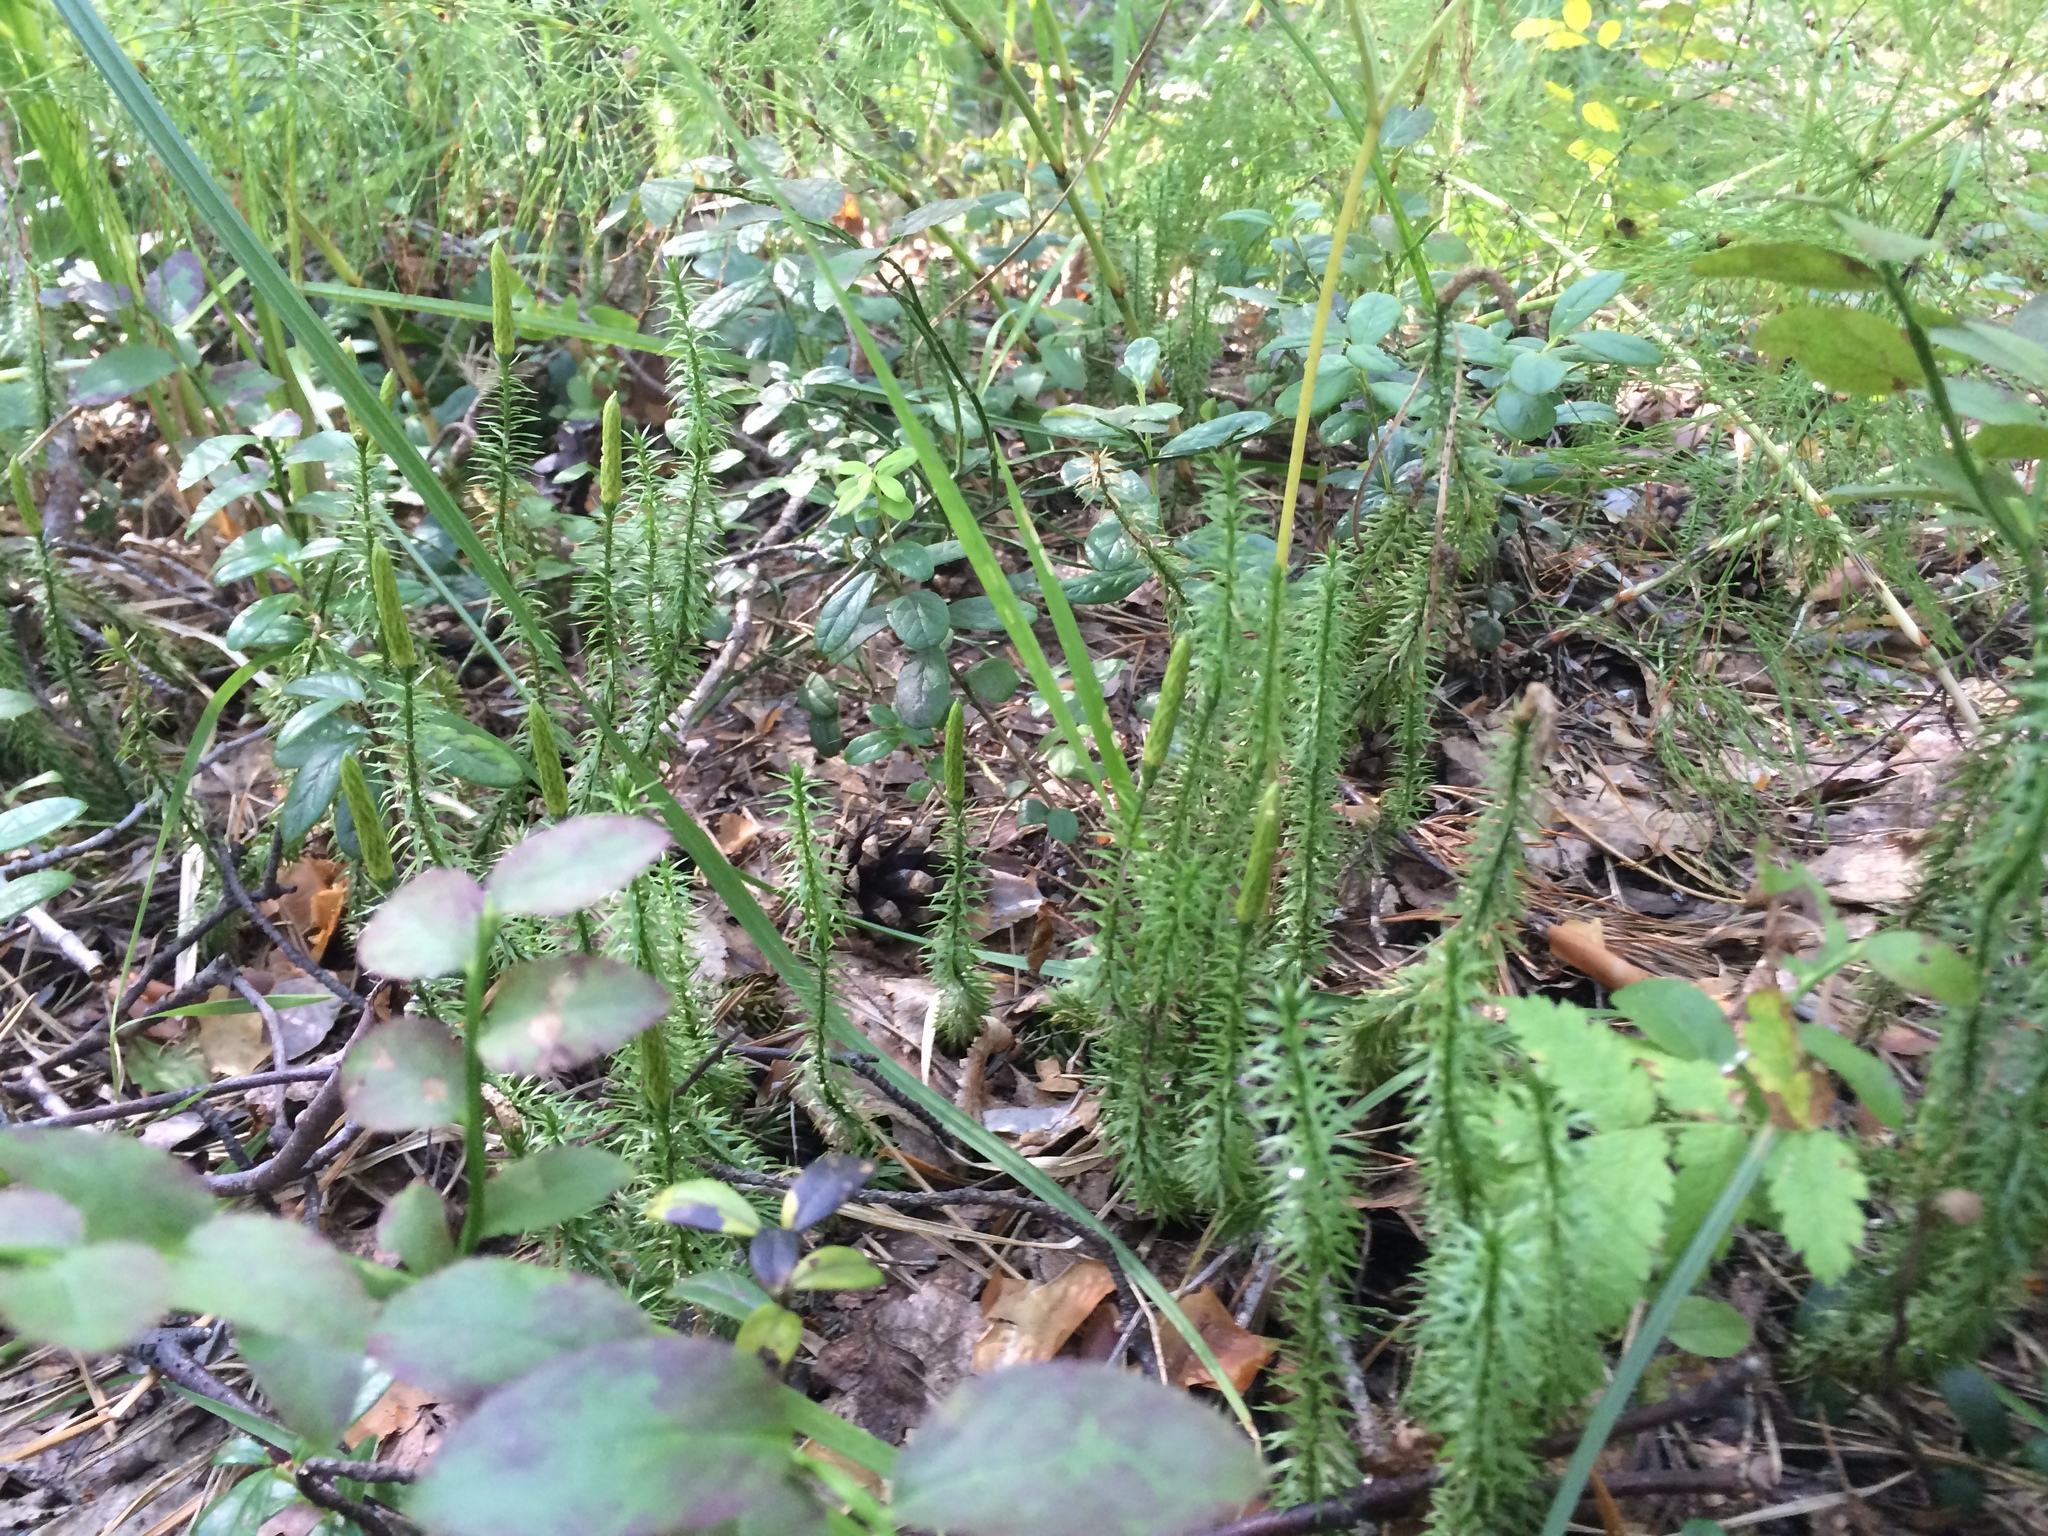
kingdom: Plantae
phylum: Tracheophyta
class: Lycopodiopsida
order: Lycopodiales
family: Lycopodiaceae
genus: Spinulum
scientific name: Spinulum annotinum
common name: Interrupted club-moss
